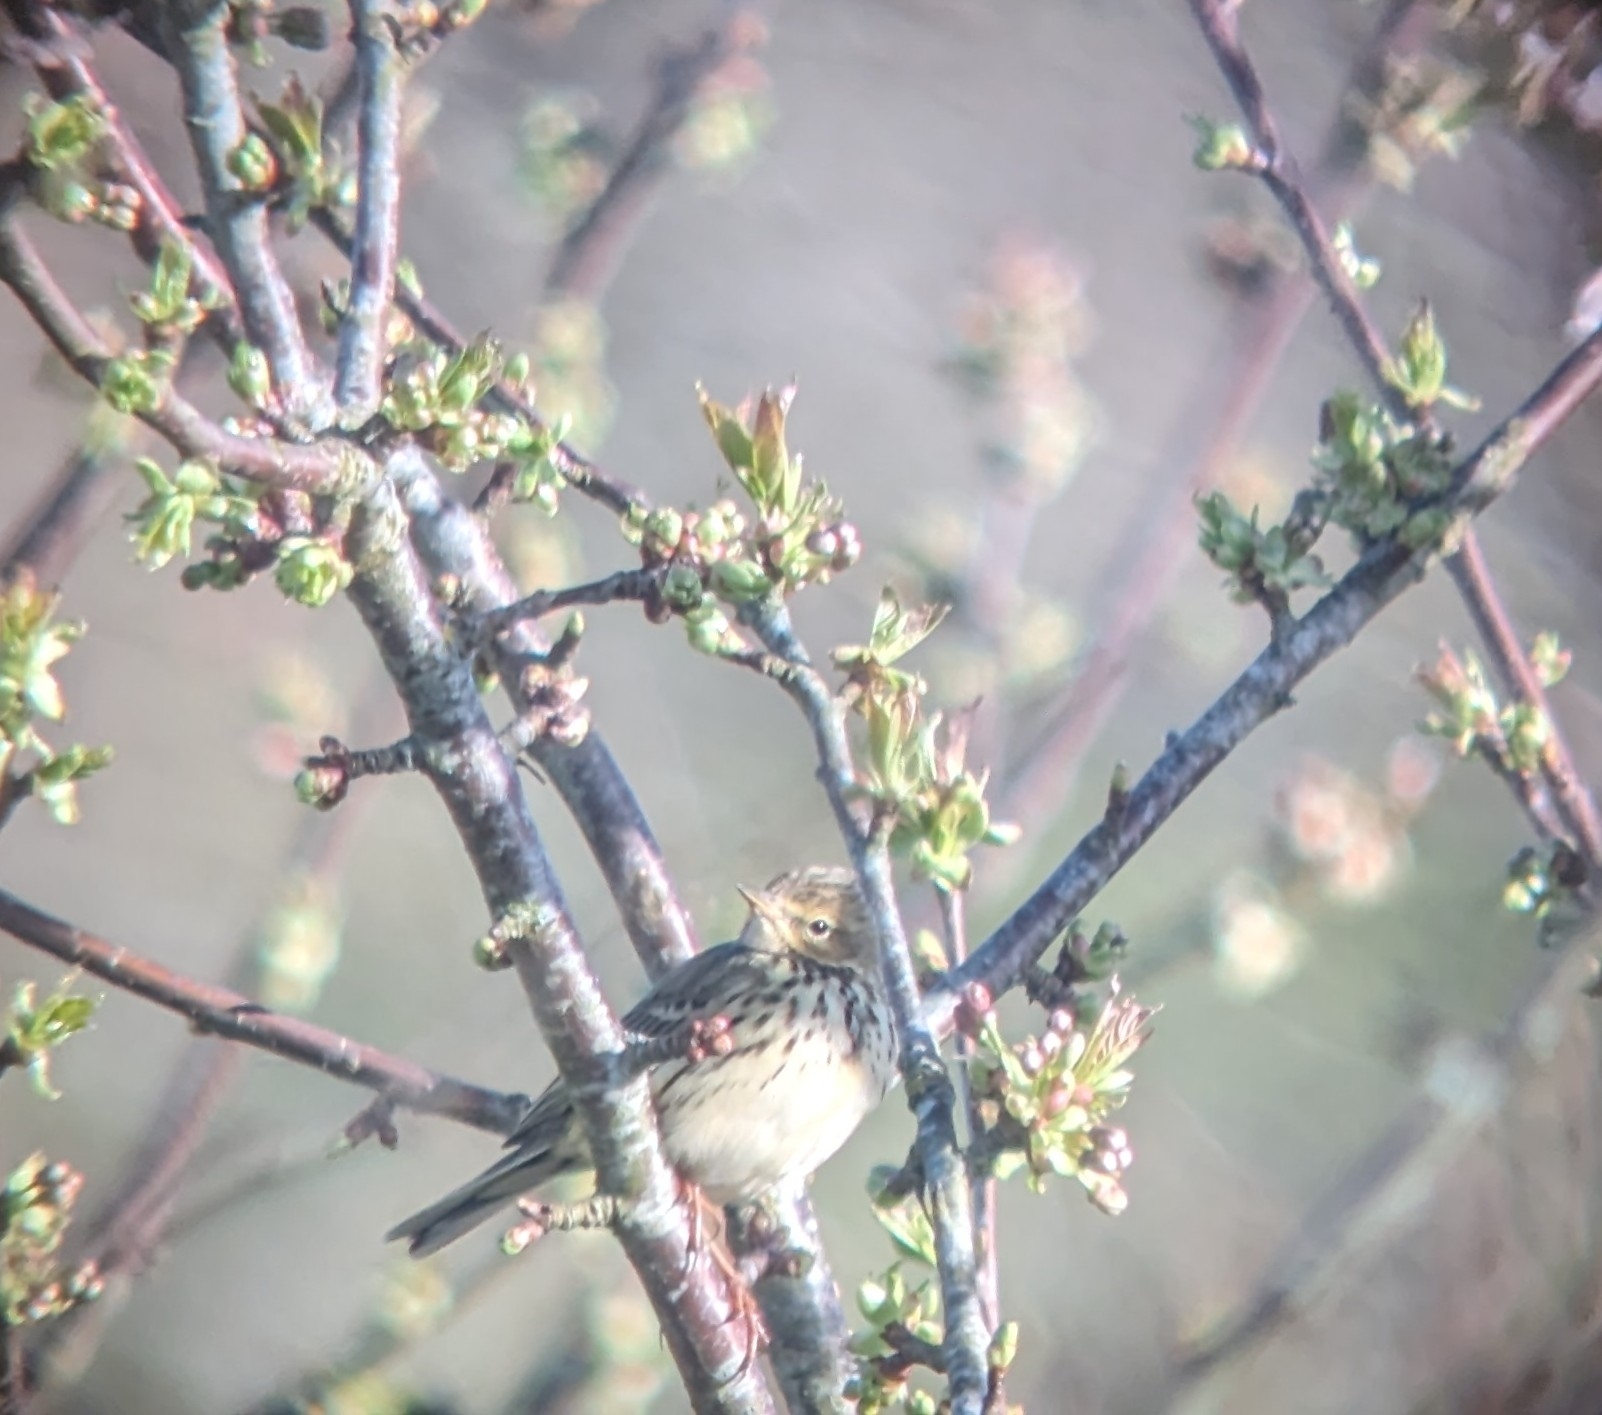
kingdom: Animalia
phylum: Chordata
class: Aves
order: Passeriformes
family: Motacillidae
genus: Anthus
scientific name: Anthus pratensis
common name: Meadow pipit
